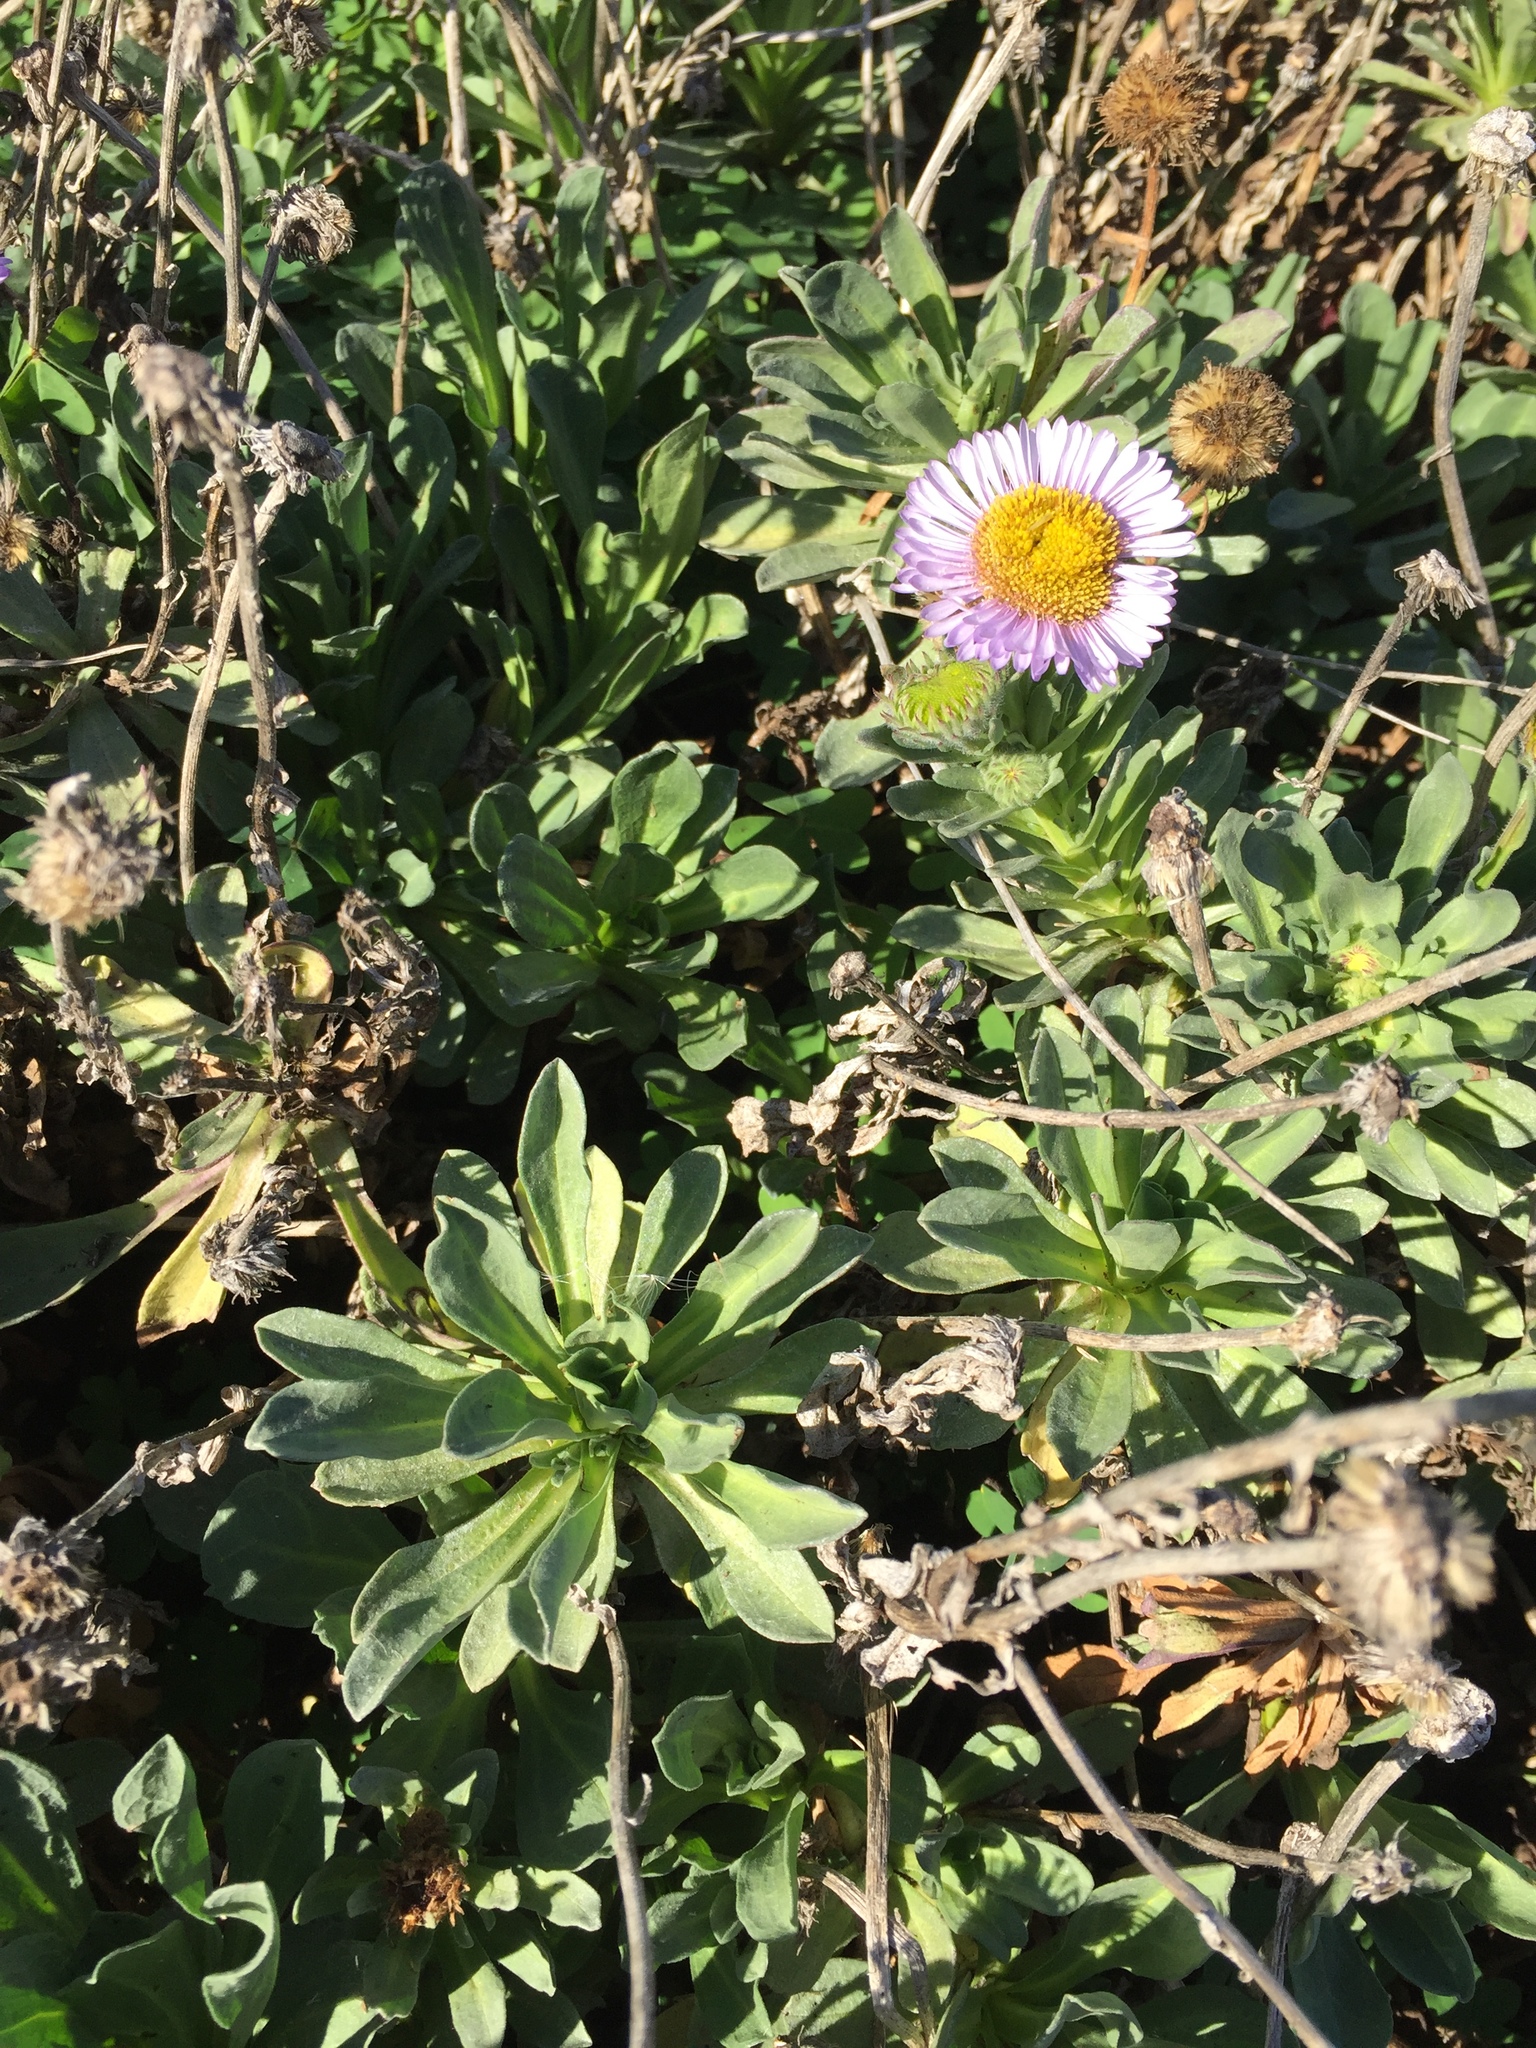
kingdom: Plantae
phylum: Tracheophyta
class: Magnoliopsida
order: Asterales
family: Asteraceae
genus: Erigeron
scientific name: Erigeron glaucus
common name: Seaside daisy
